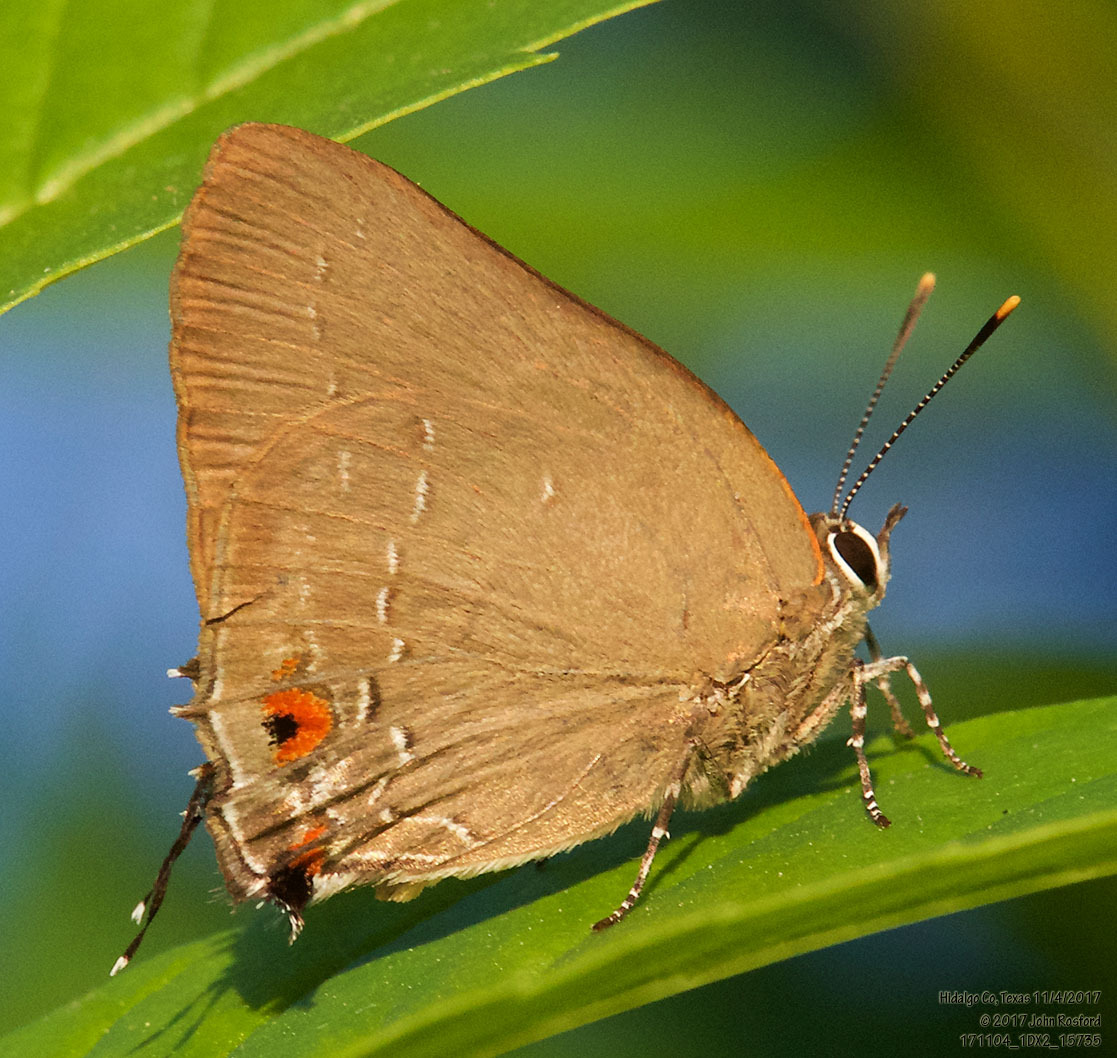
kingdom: Animalia
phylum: Arthropoda
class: Insecta
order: Lepidoptera
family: Lycaenidae
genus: Michaelus
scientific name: Michaelus ira
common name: Shadowed hairstreak
